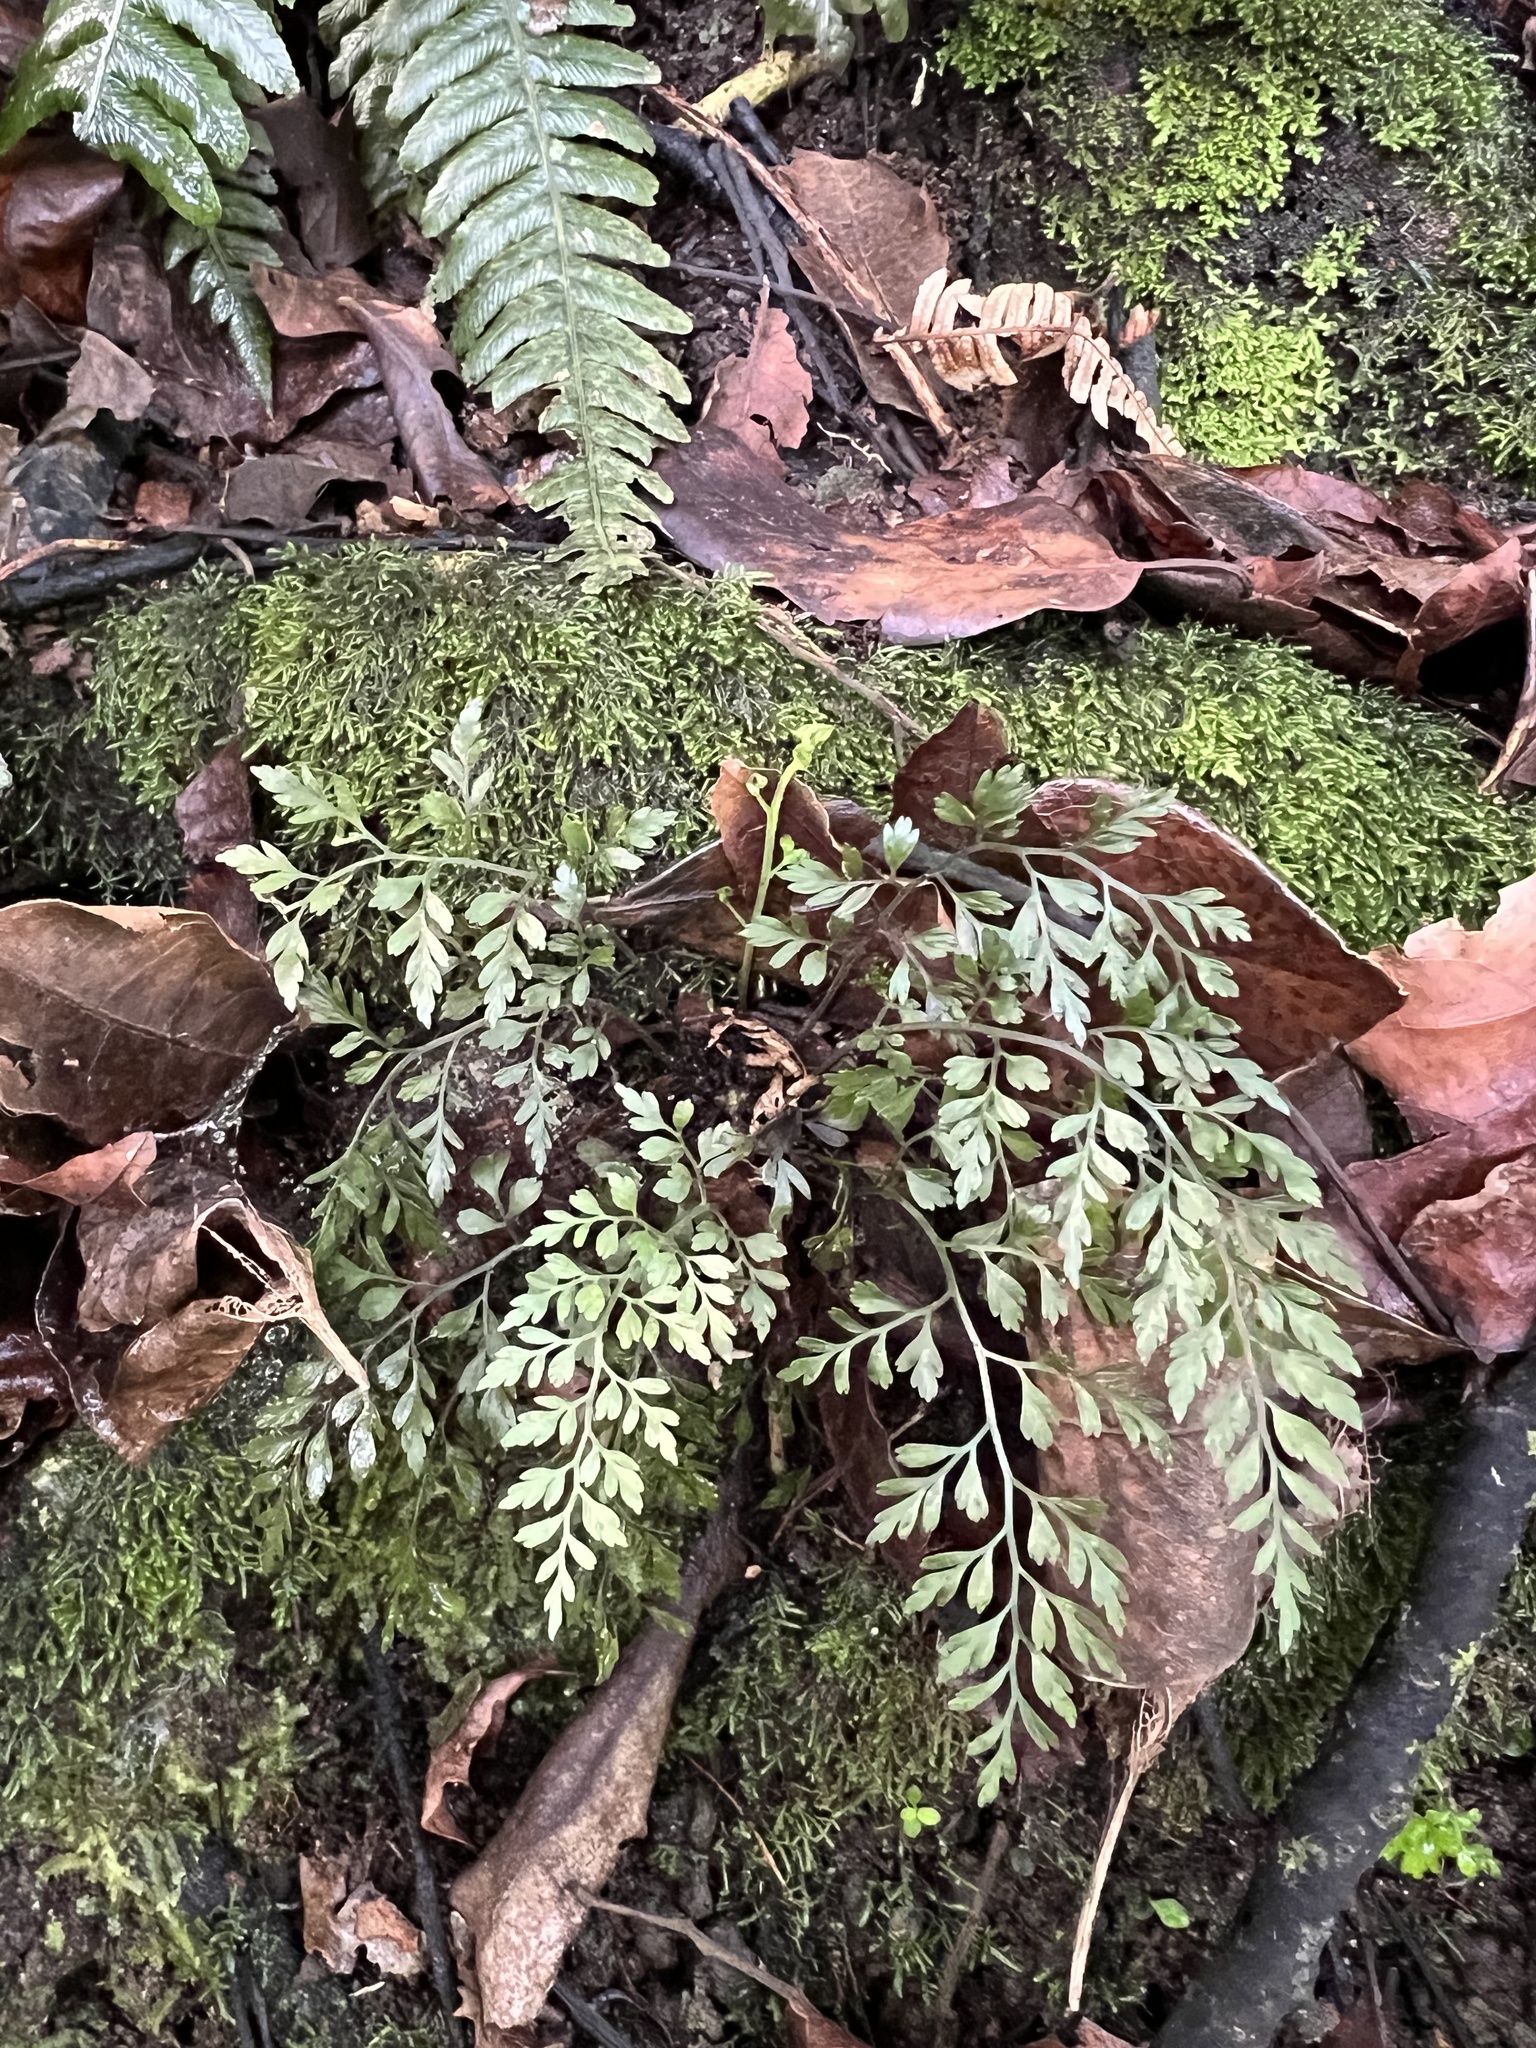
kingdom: Plantae
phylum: Tracheophyta
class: Polypodiopsida
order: Polypodiales
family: Aspleniaceae
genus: Asplenium
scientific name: Asplenium hookerianum
